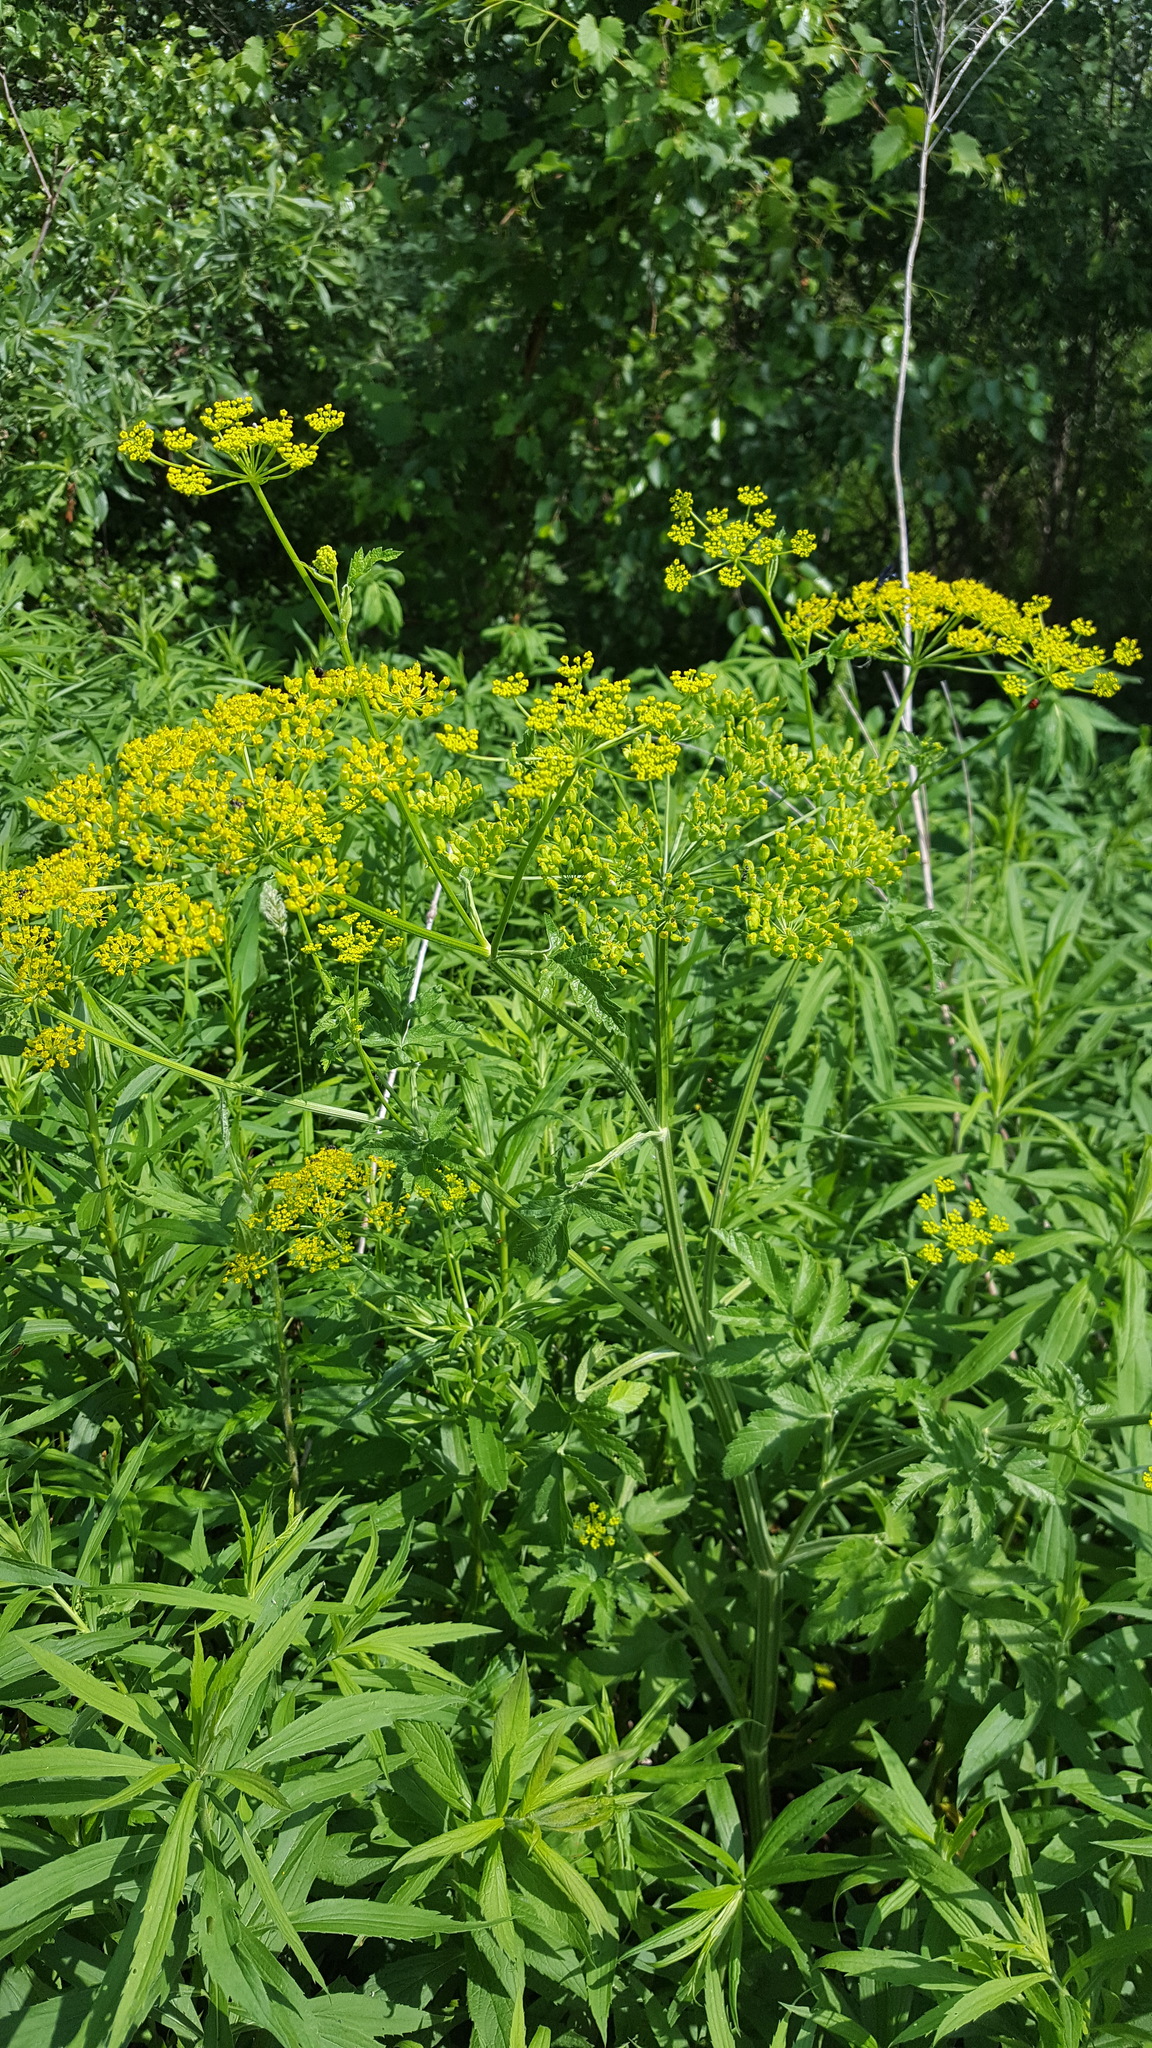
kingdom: Plantae
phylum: Tracheophyta
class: Magnoliopsida
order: Apiales
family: Apiaceae
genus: Pastinaca
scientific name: Pastinaca sativa
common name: Wild parsnip
